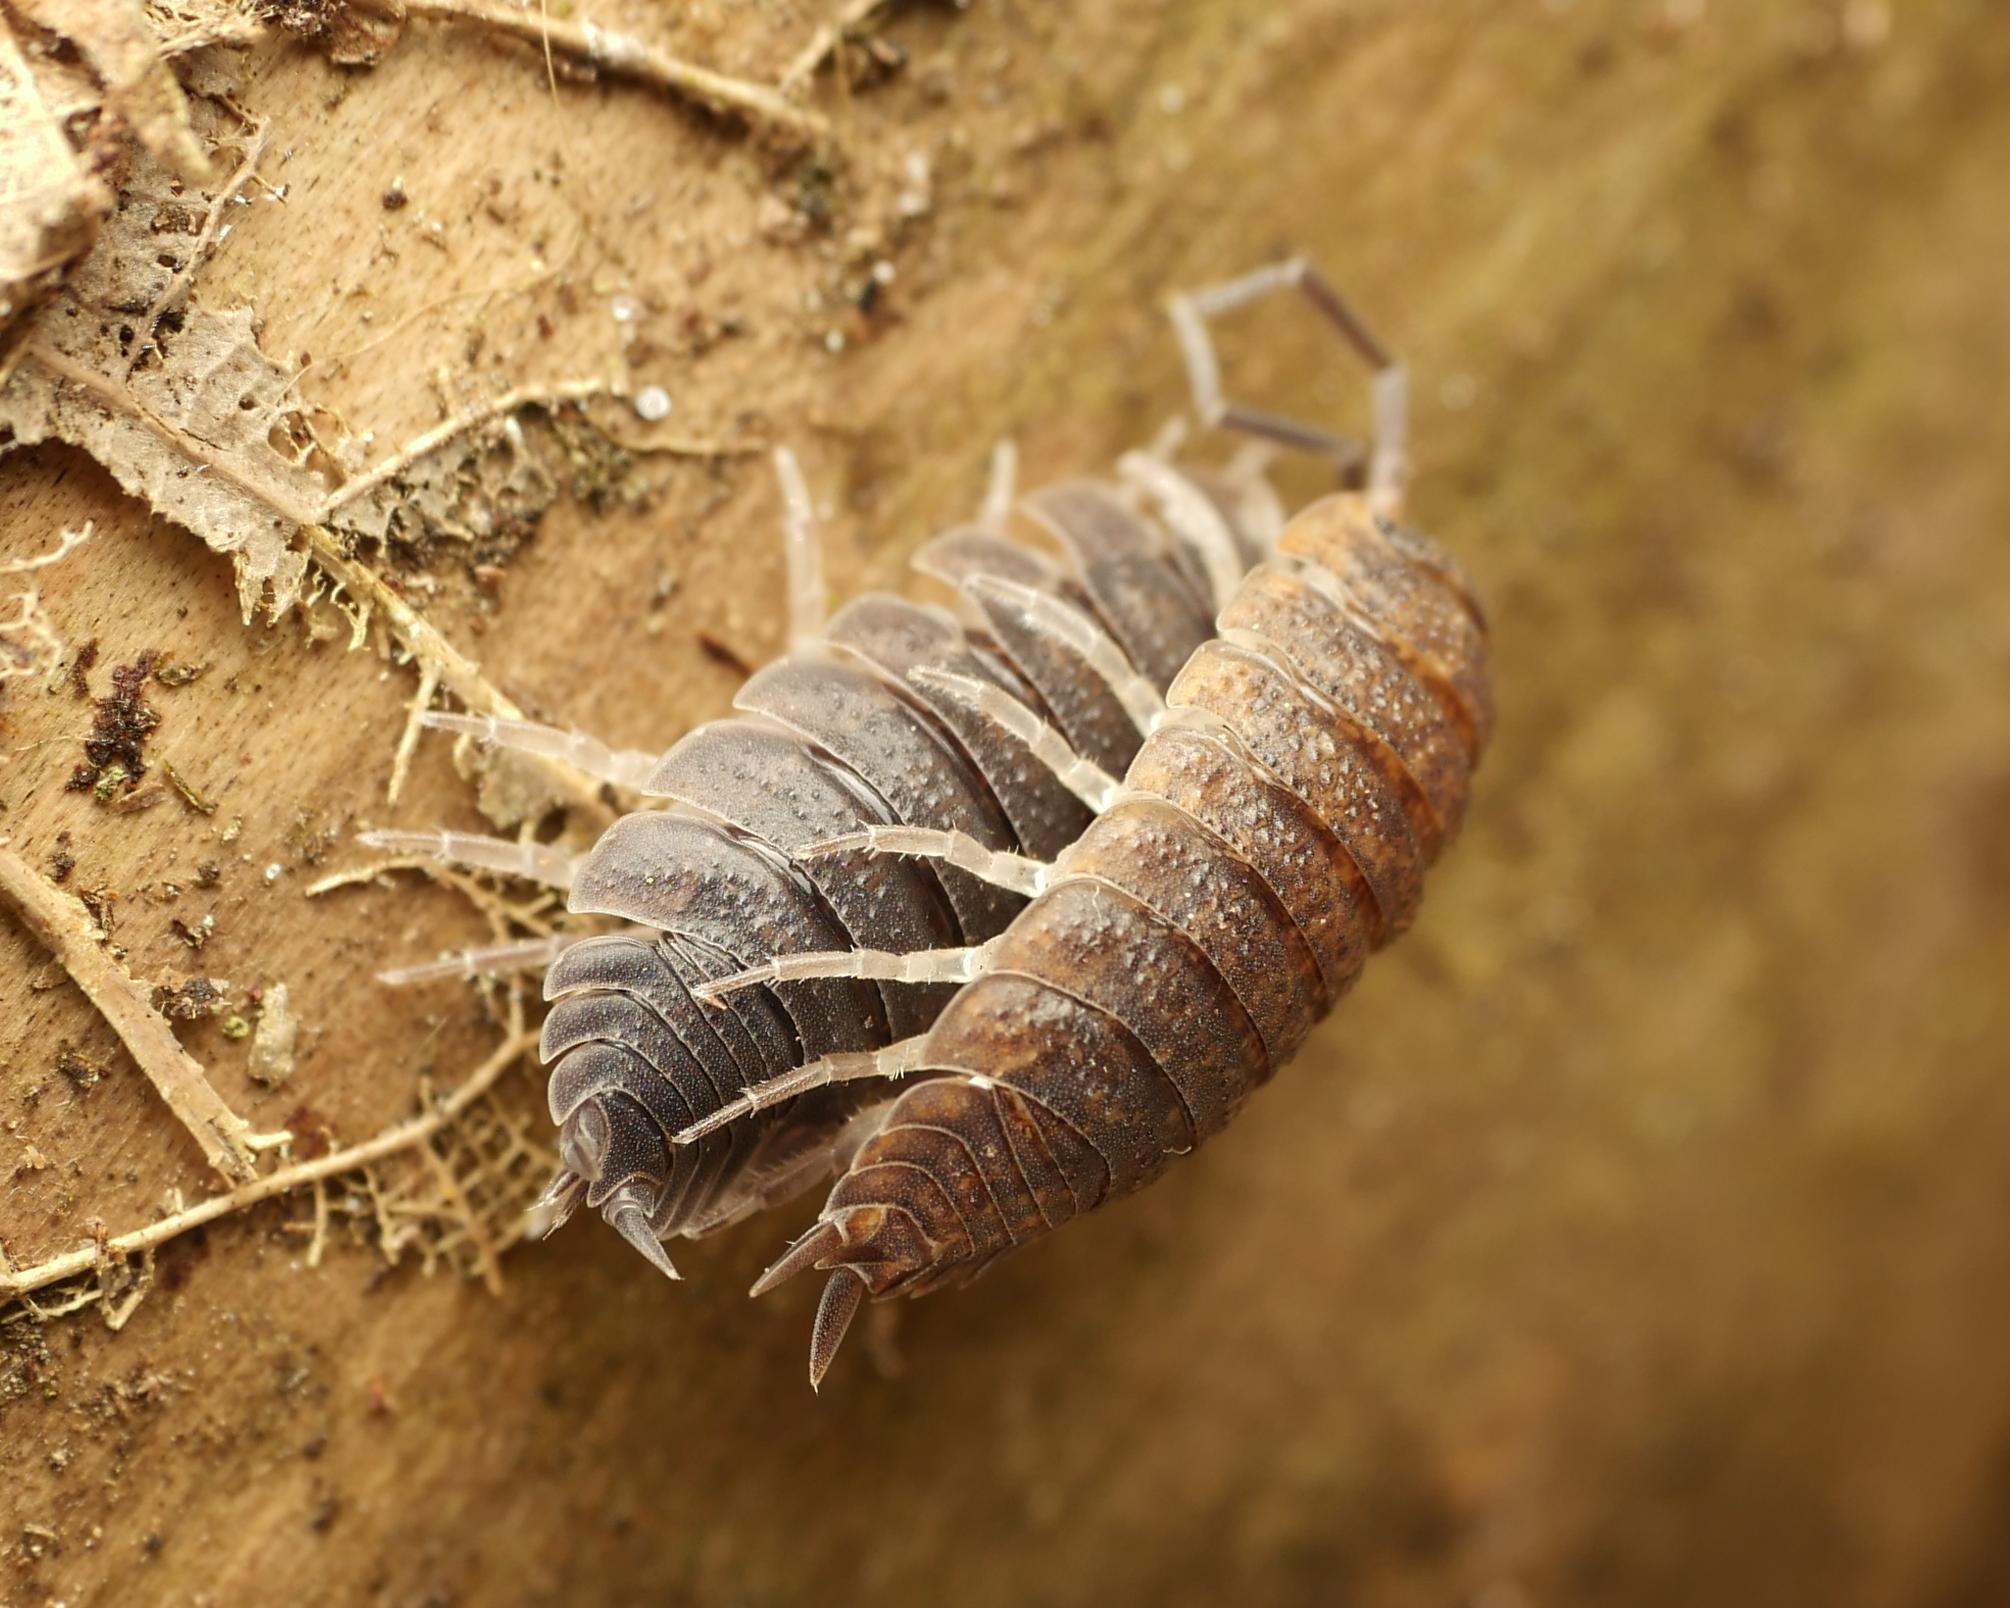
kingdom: Animalia
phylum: Arthropoda
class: Malacostraca
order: Isopoda
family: Porcellionidae
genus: Porcellio
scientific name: Porcellio scaber
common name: Common rough woodlouse
